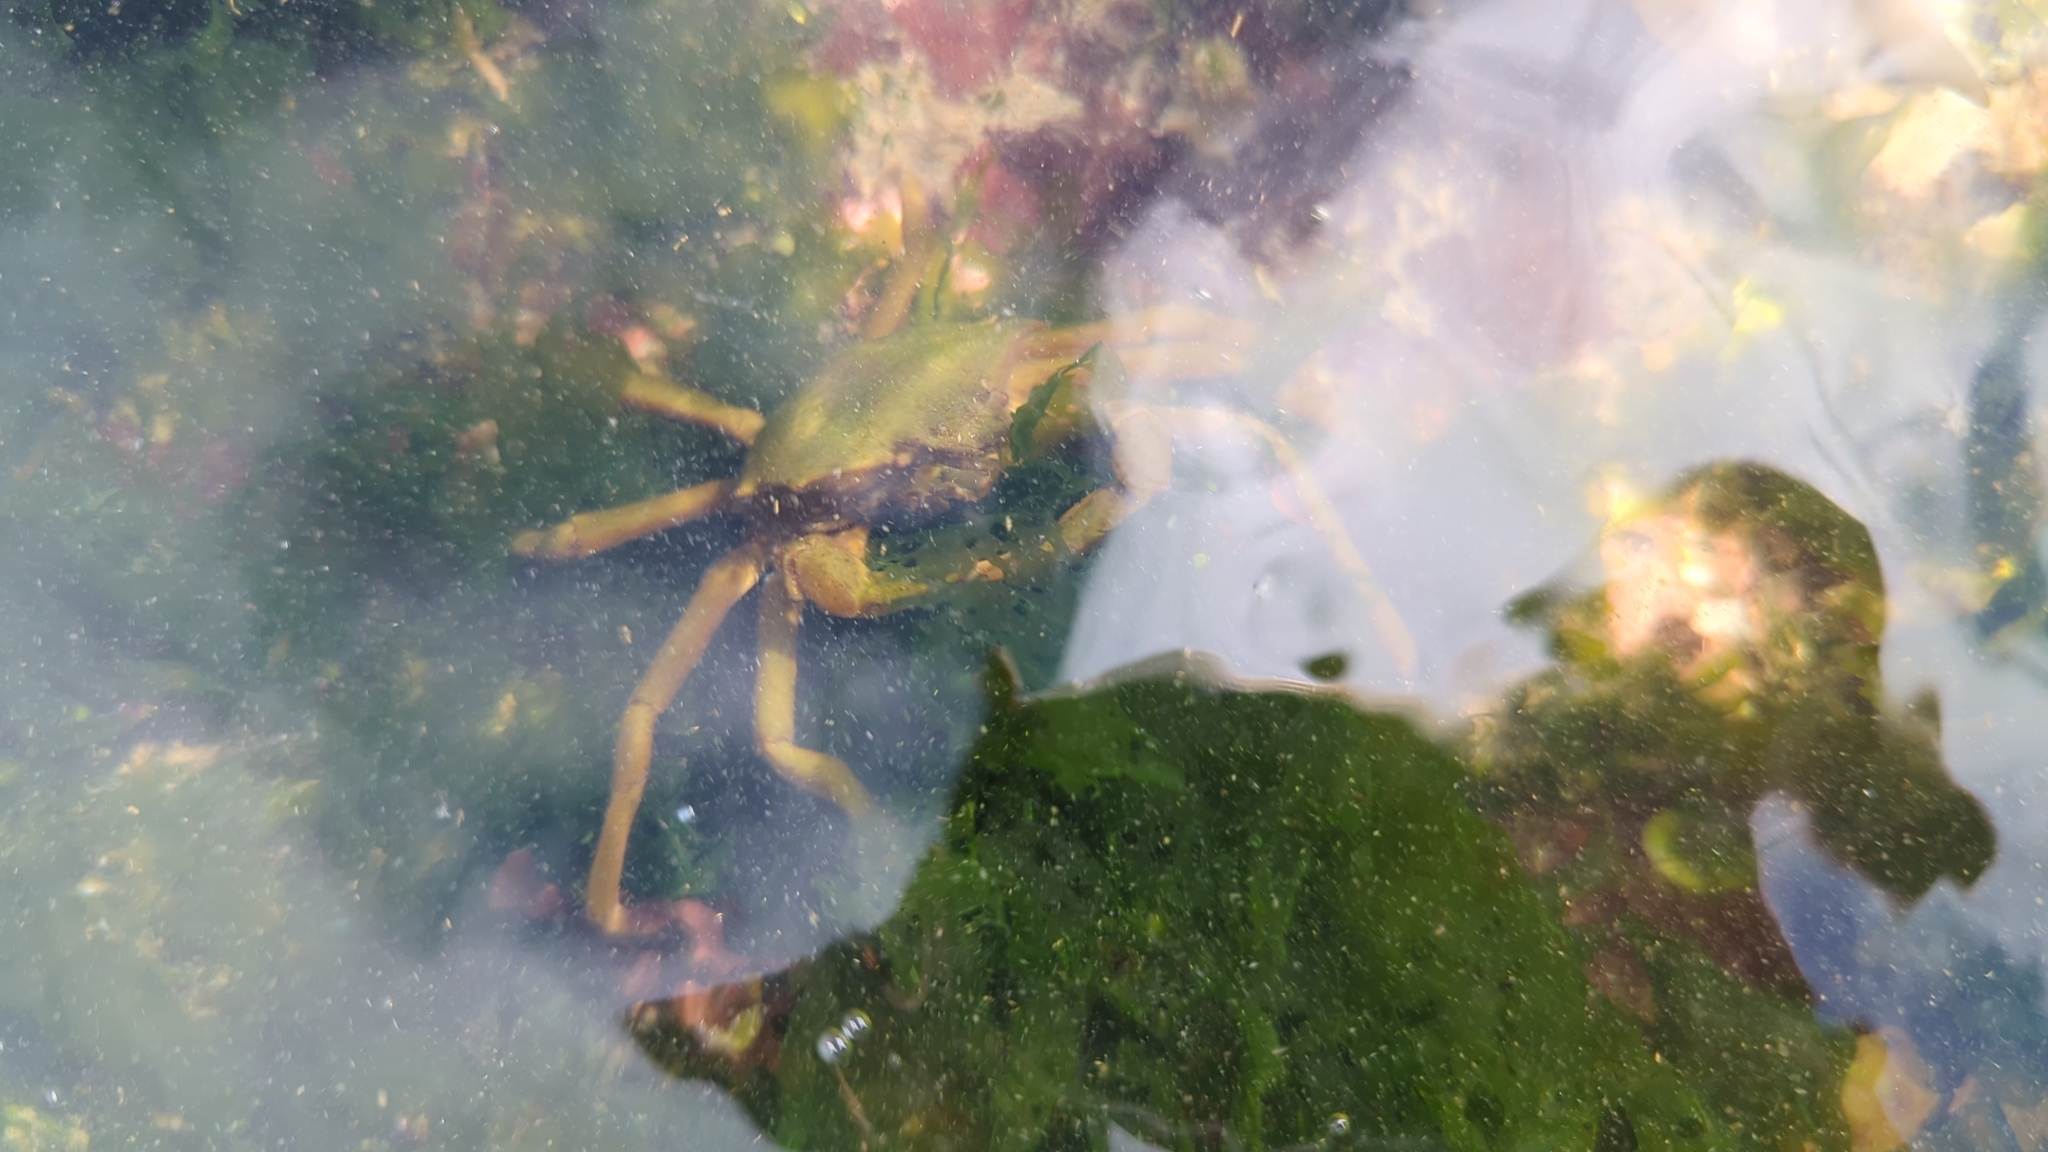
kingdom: Animalia
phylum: Arthropoda
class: Malacostraca
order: Decapoda
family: Epialtidae
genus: Pugettia
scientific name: Pugettia producta
